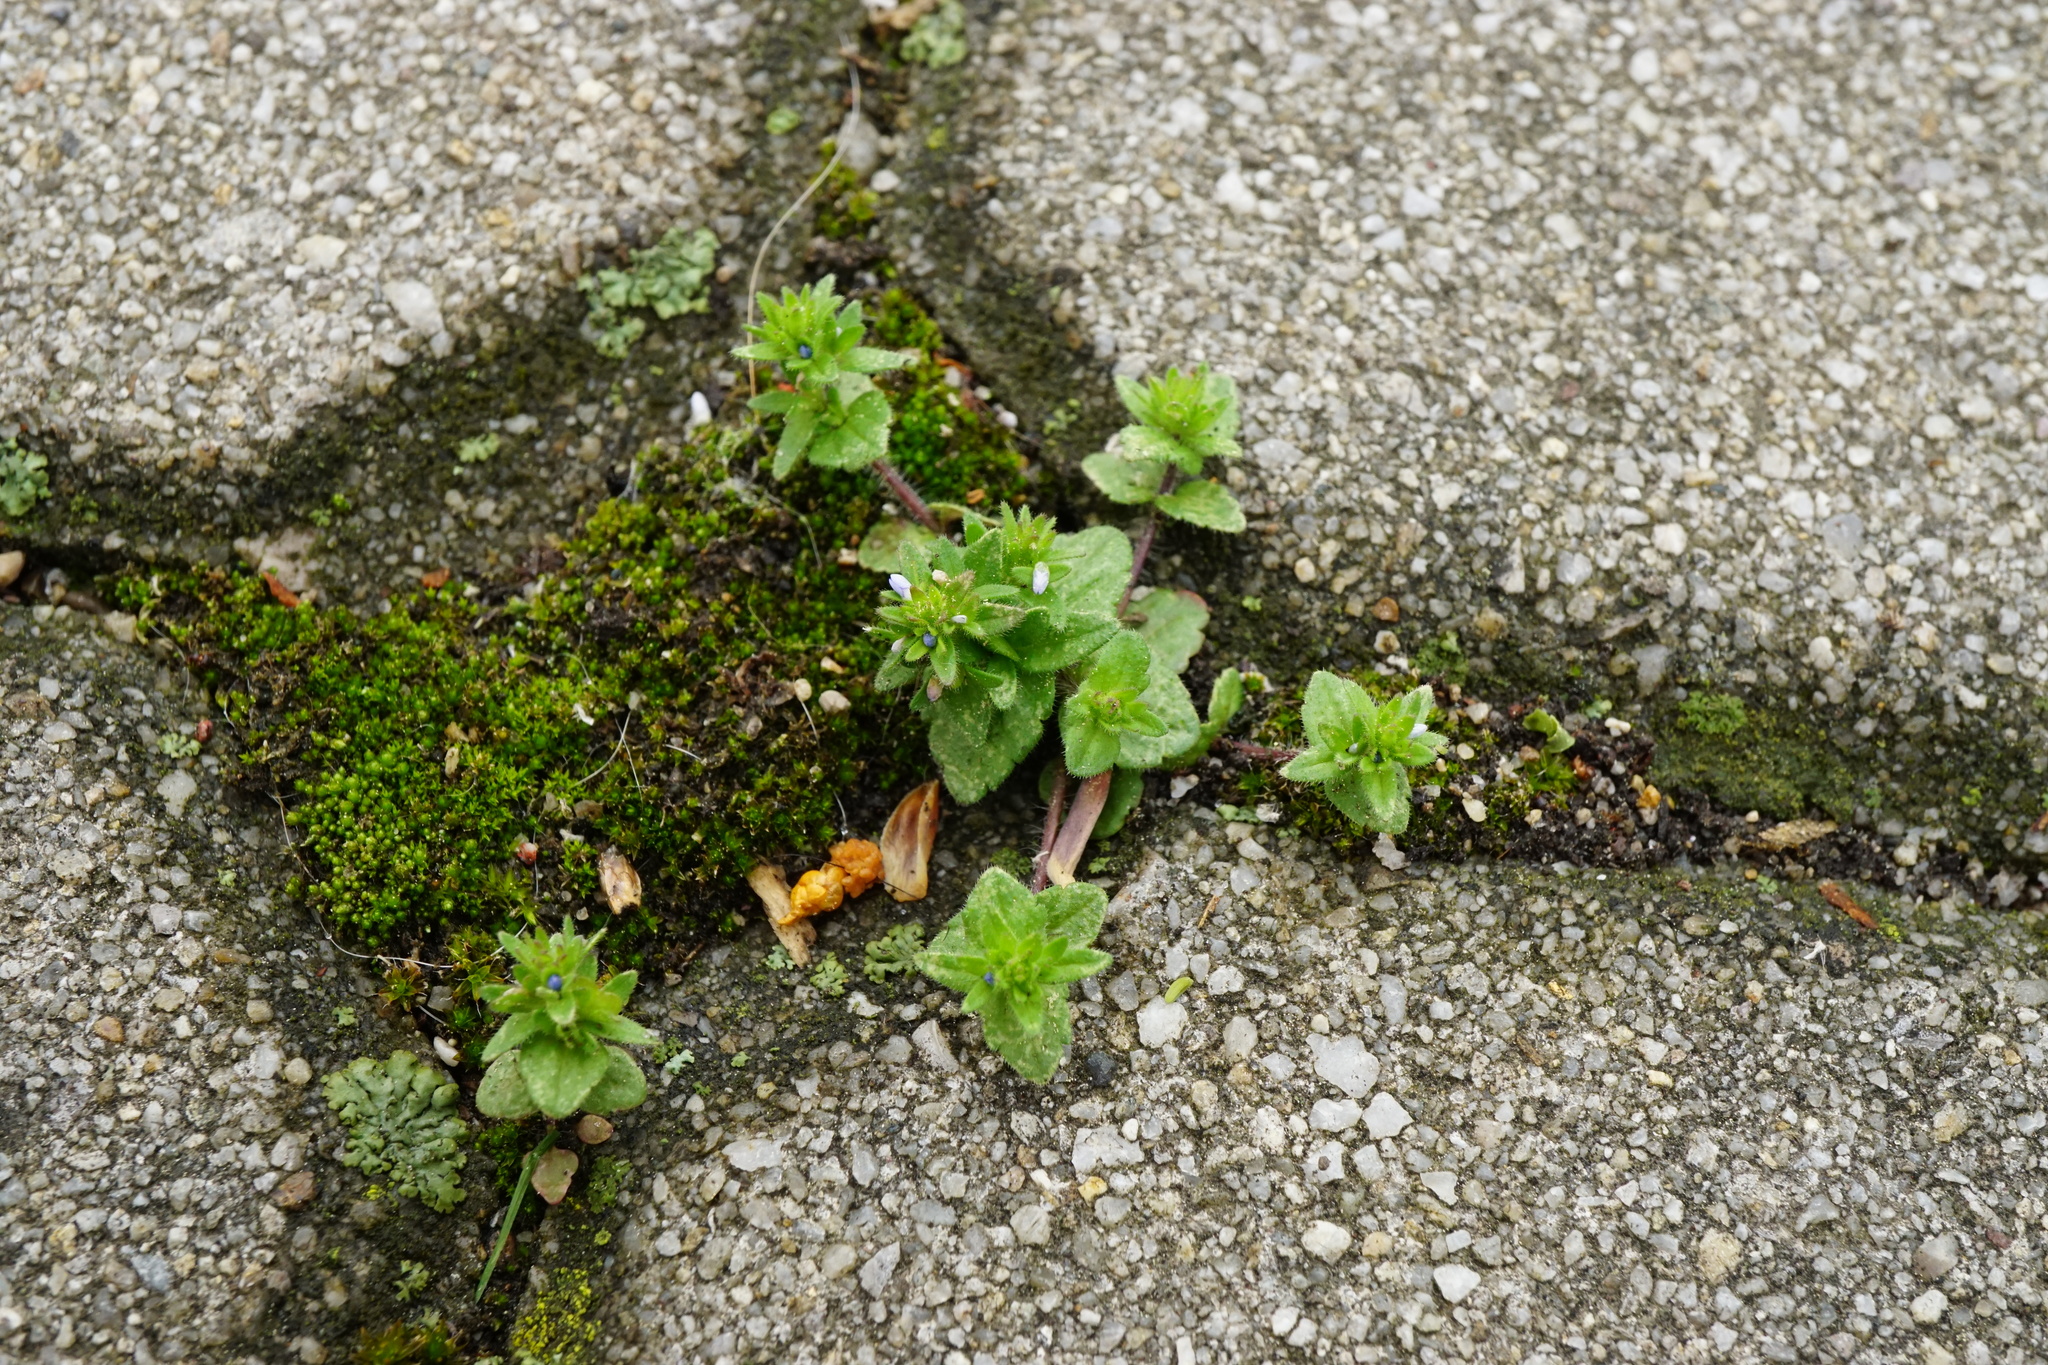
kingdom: Plantae
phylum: Tracheophyta
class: Magnoliopsida
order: Lamiales
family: Plantaginaceae
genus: Veronica
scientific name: Veronica arvensis
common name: Corn speedwell
